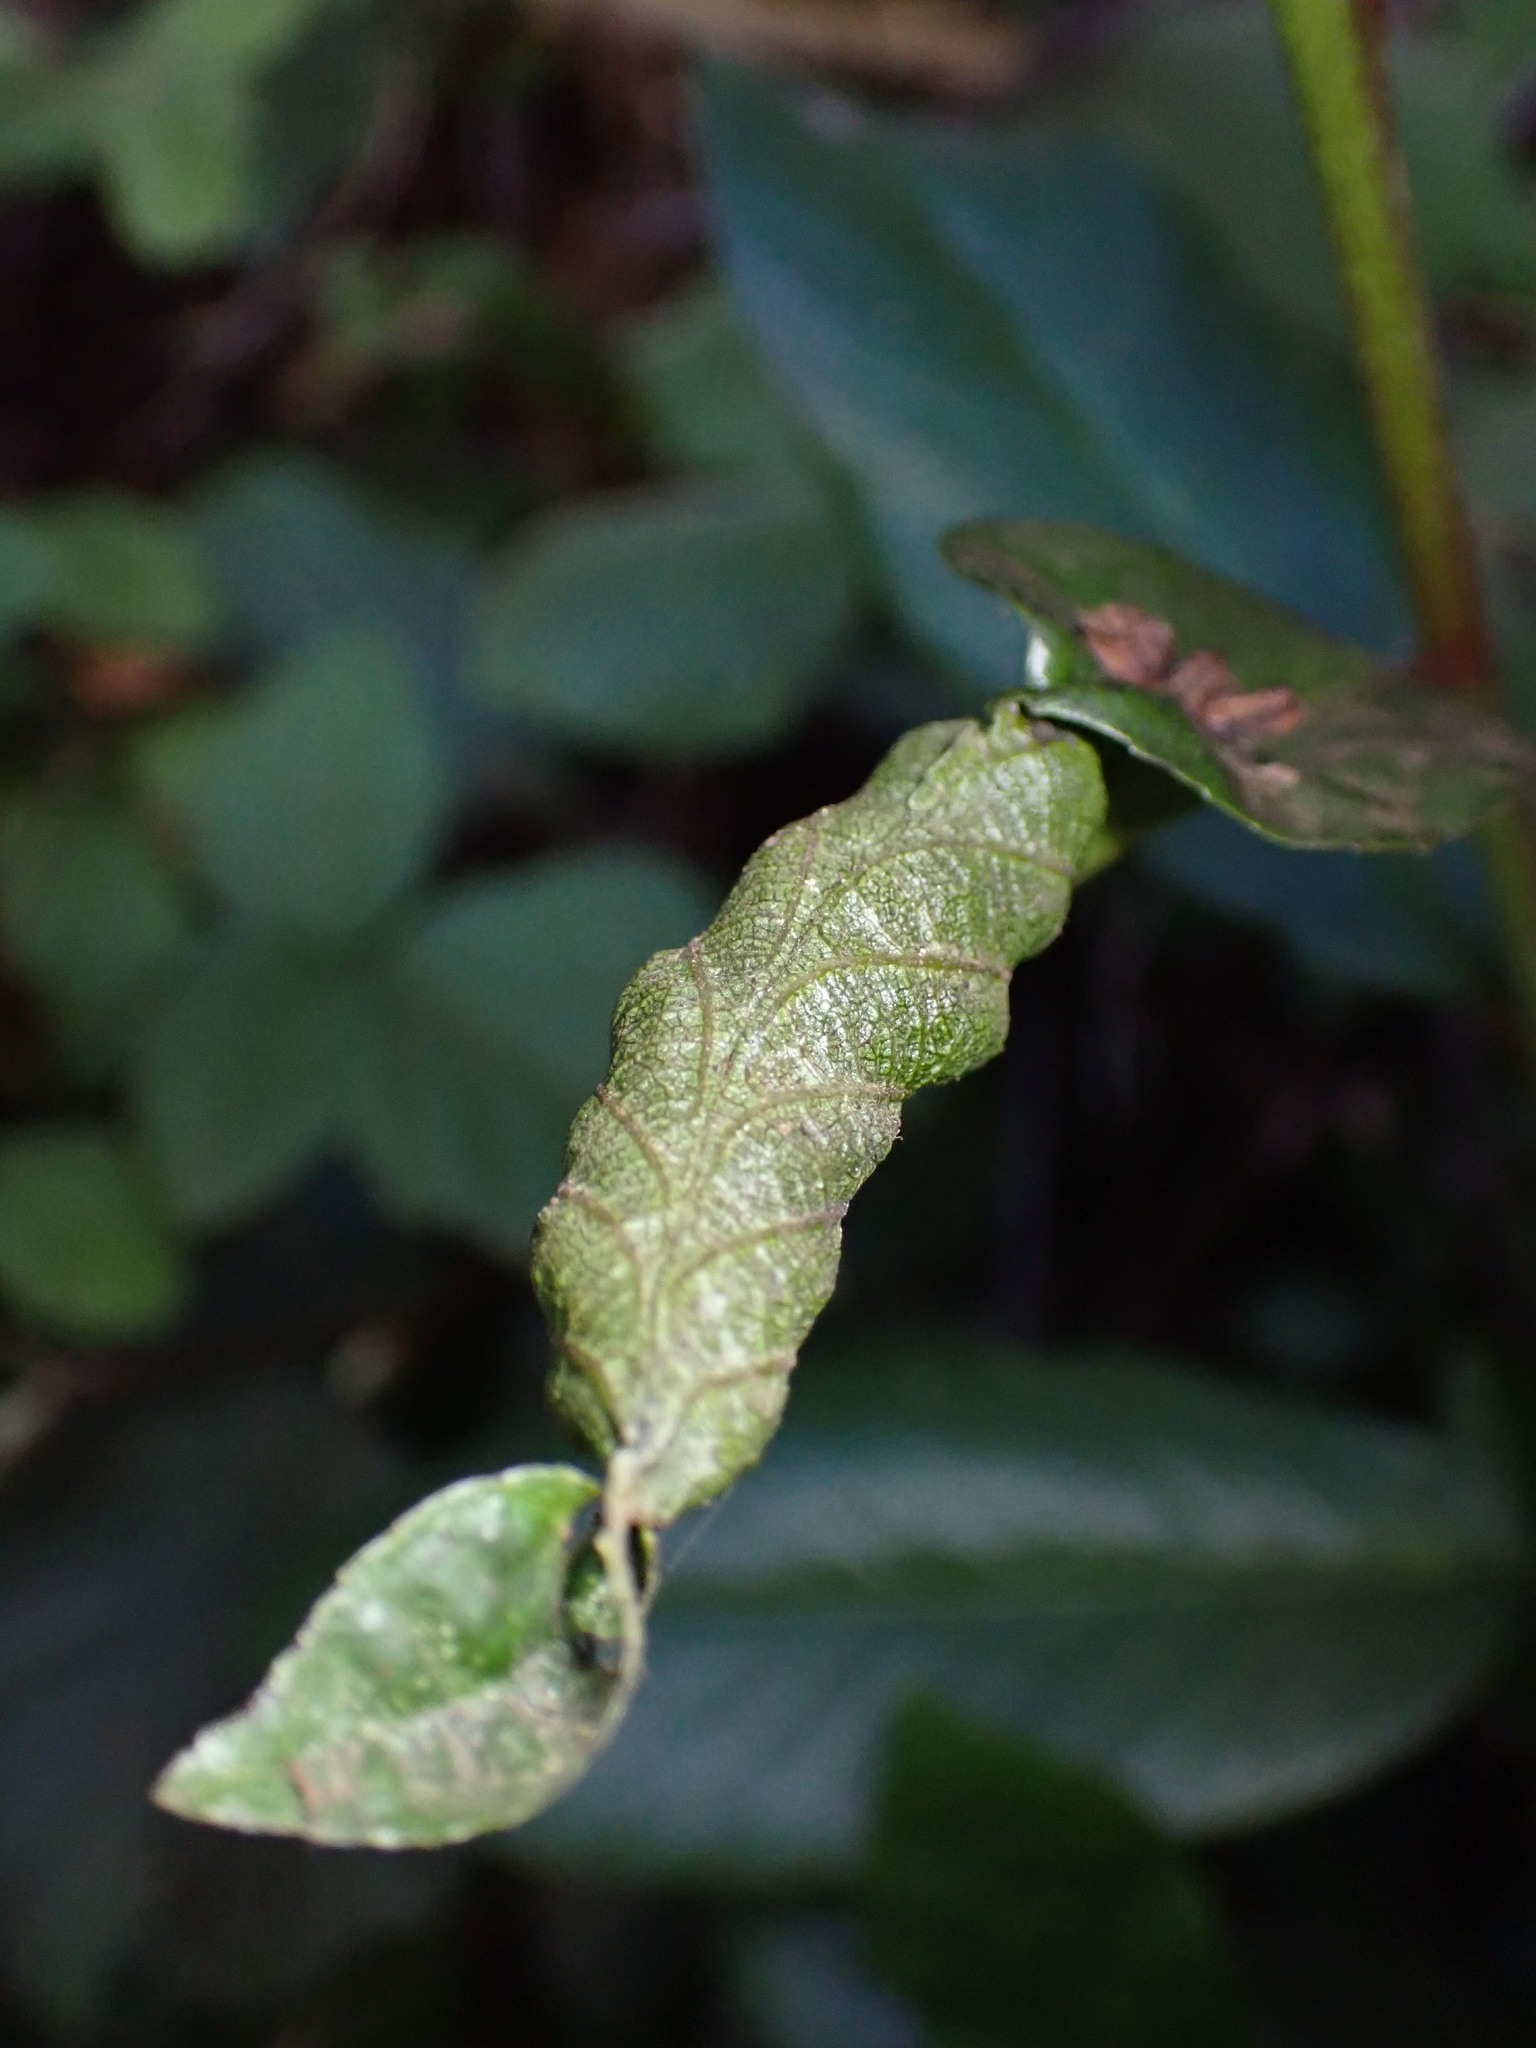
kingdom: Animalia
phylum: Arthropoda
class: Insecta
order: Lepidoptera
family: Cosmopterigidae
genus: Sorhagenia
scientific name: Sorhagenia nimbosus
